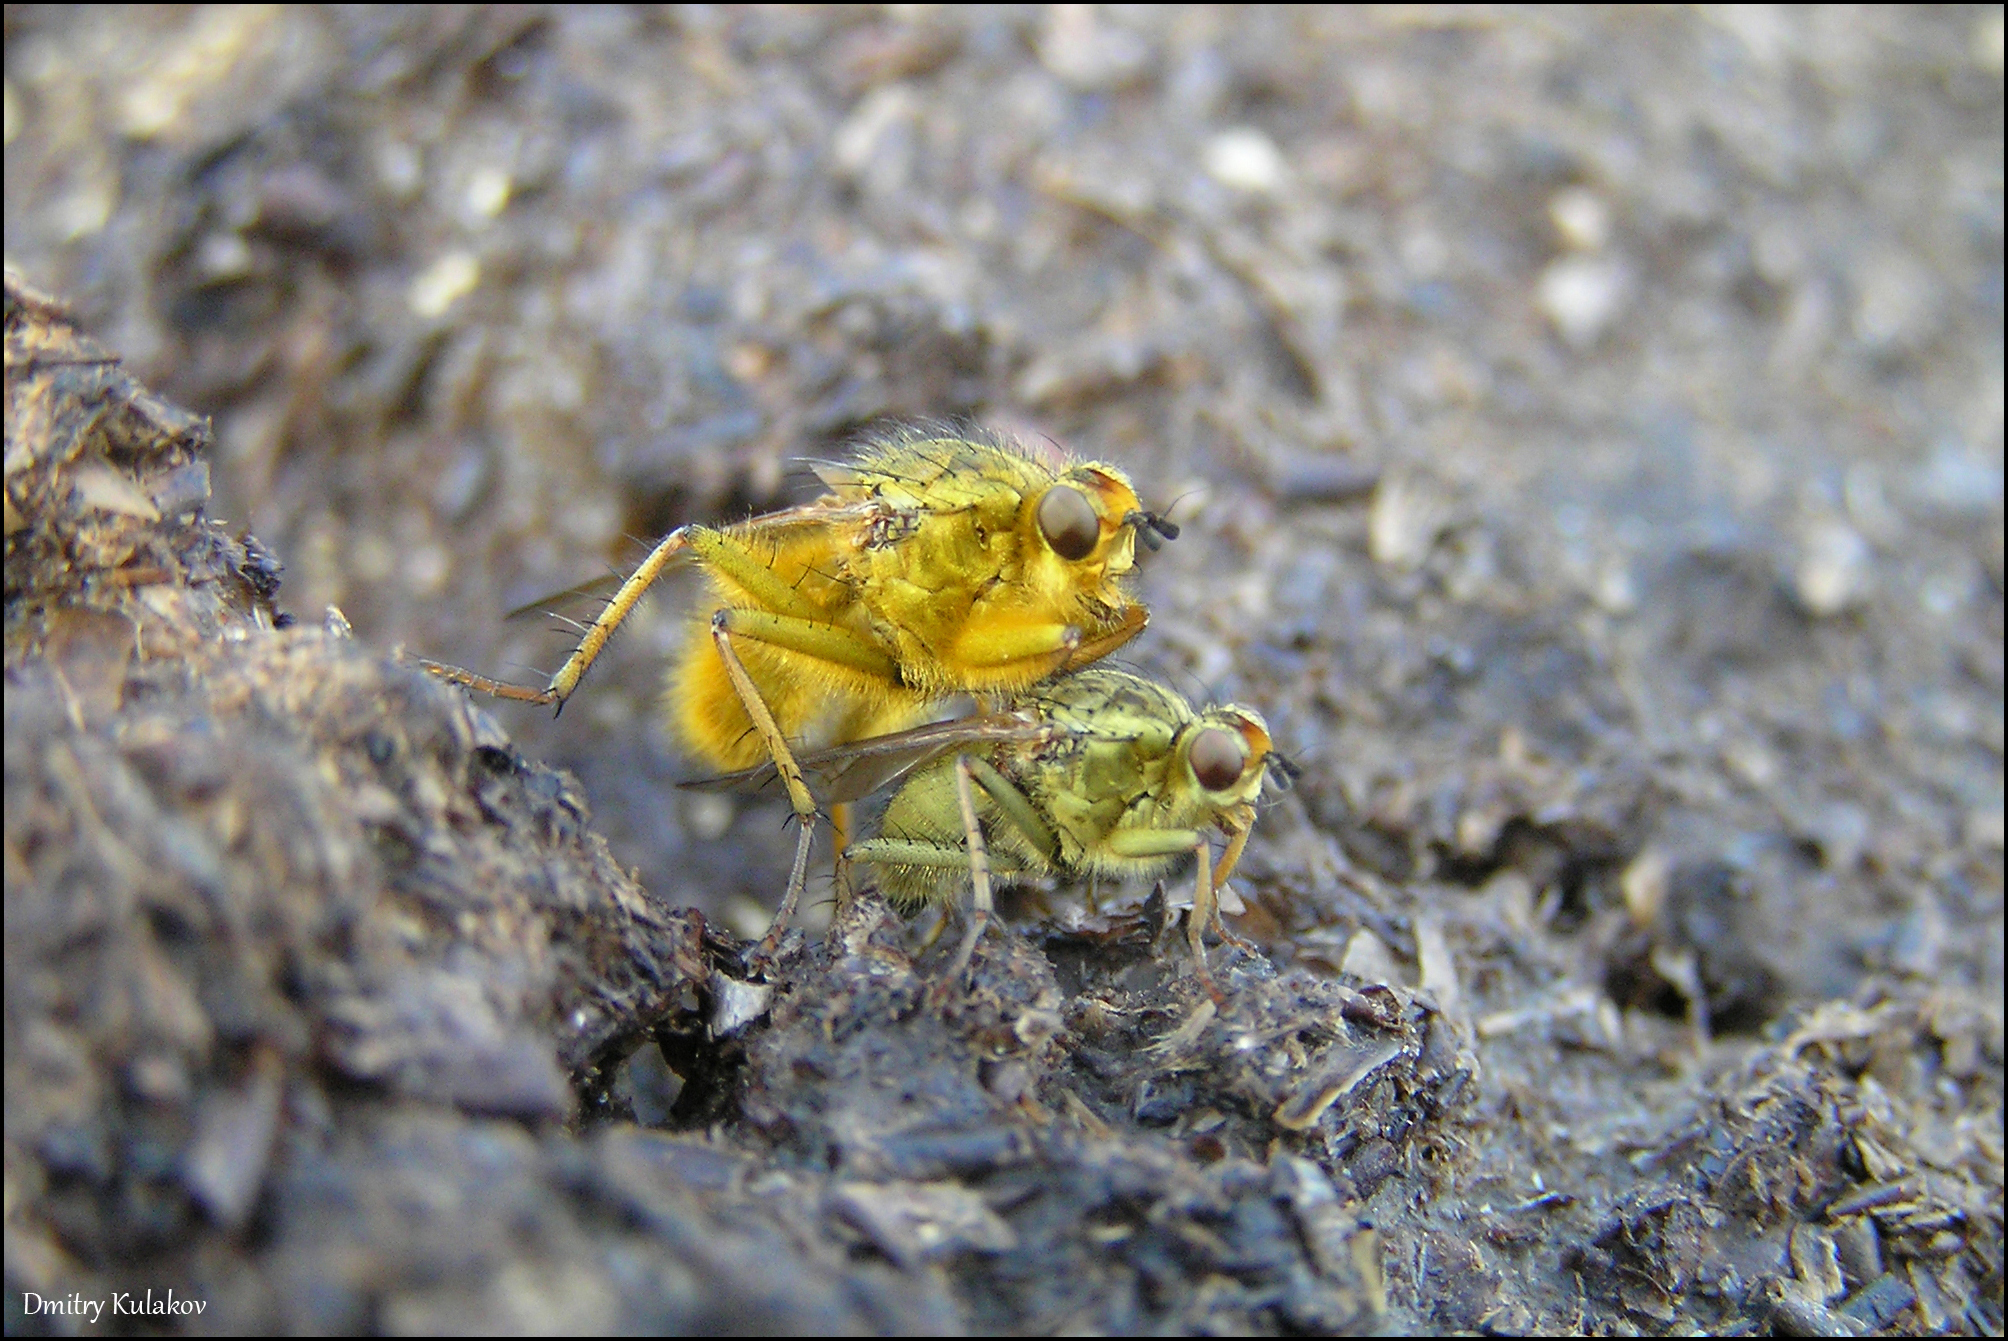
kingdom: Animalia
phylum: Arthropoda
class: Insecta
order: Diptera
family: Scathophagidae
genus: Scathophaga
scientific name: Scathophaga stercoraria
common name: Yellow dung fly
